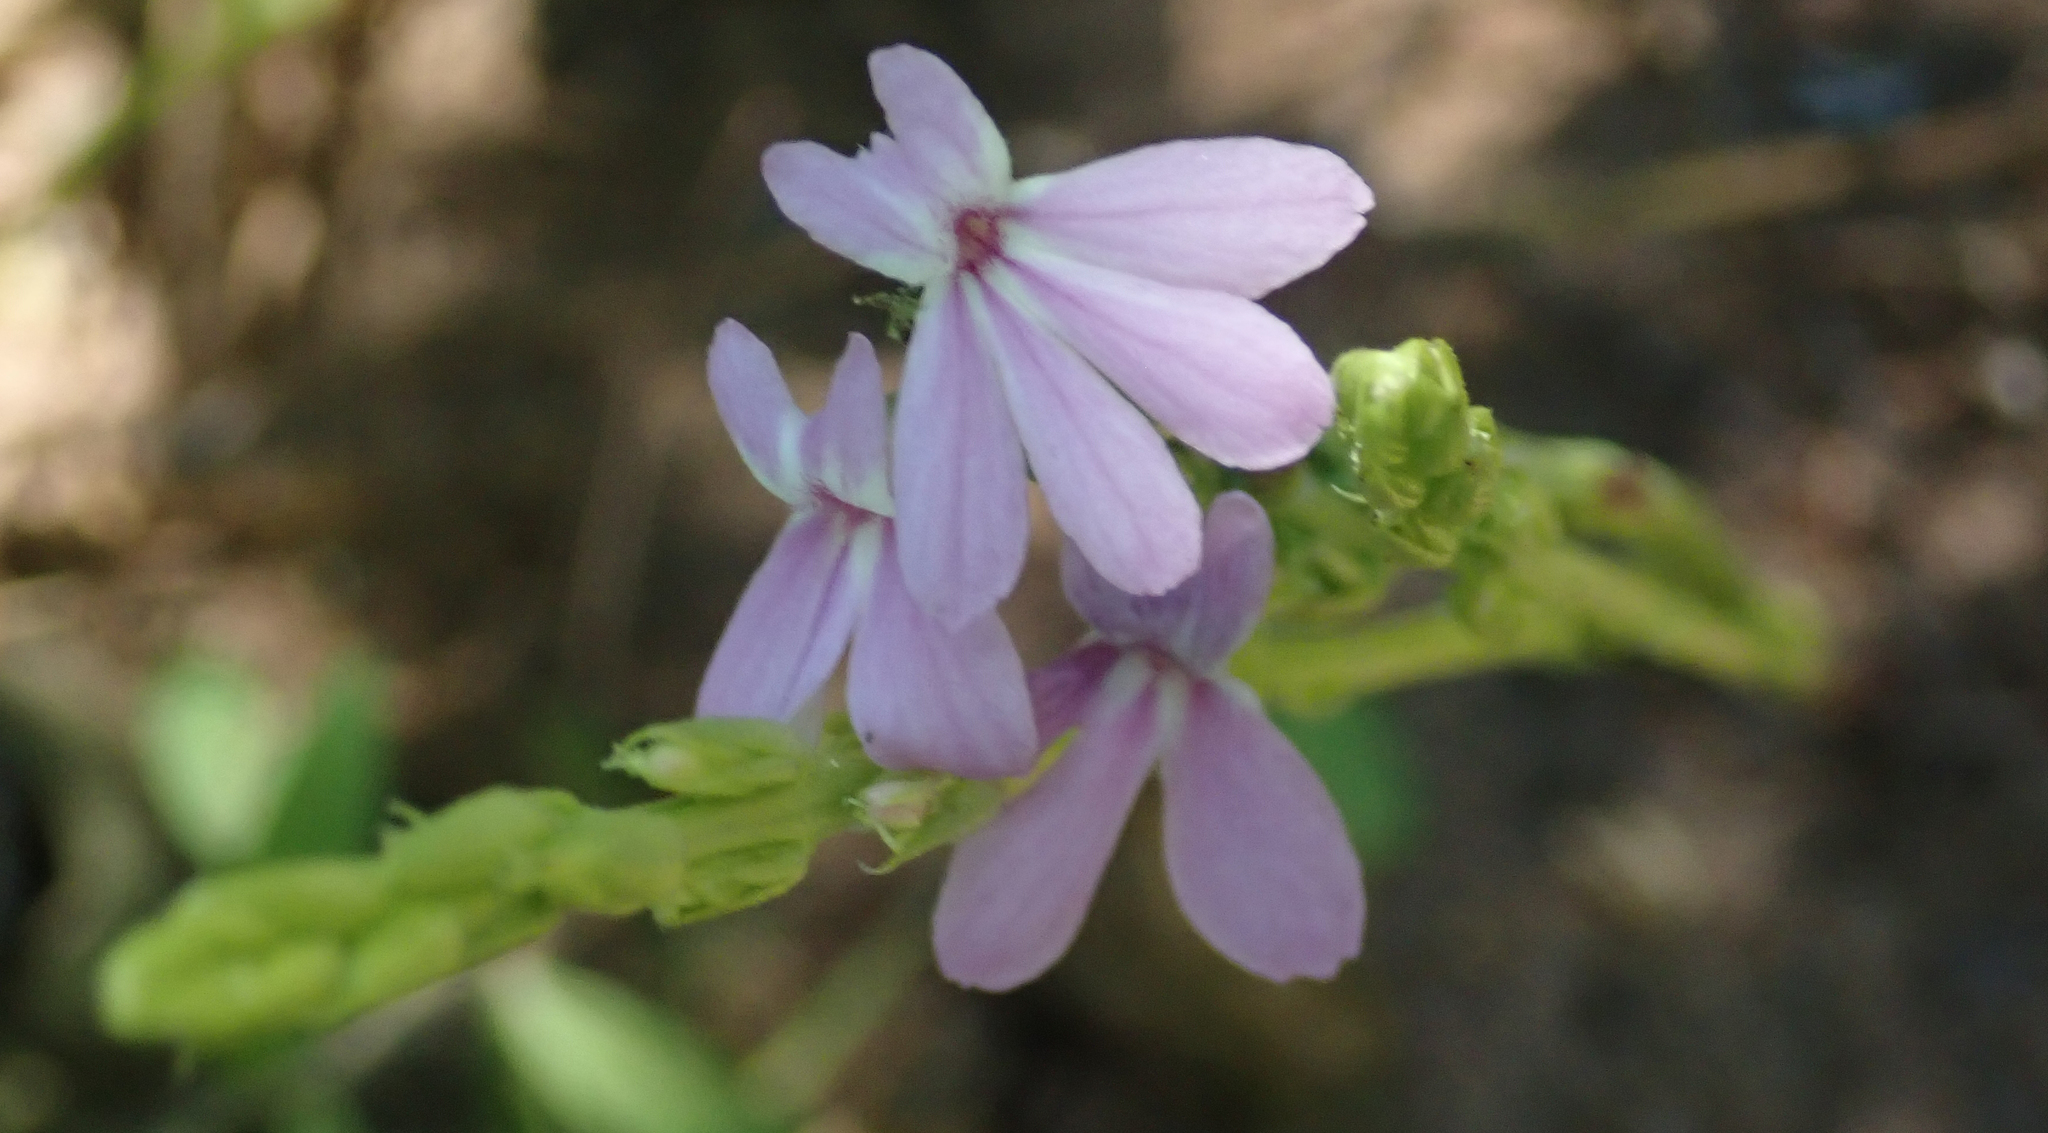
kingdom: Plantae
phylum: Tracheophyta
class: Magnoliopsida
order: Lamiales
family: Orobanchaceae
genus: Striga
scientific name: Striga gesnerioides
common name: Cowpea witchweed
